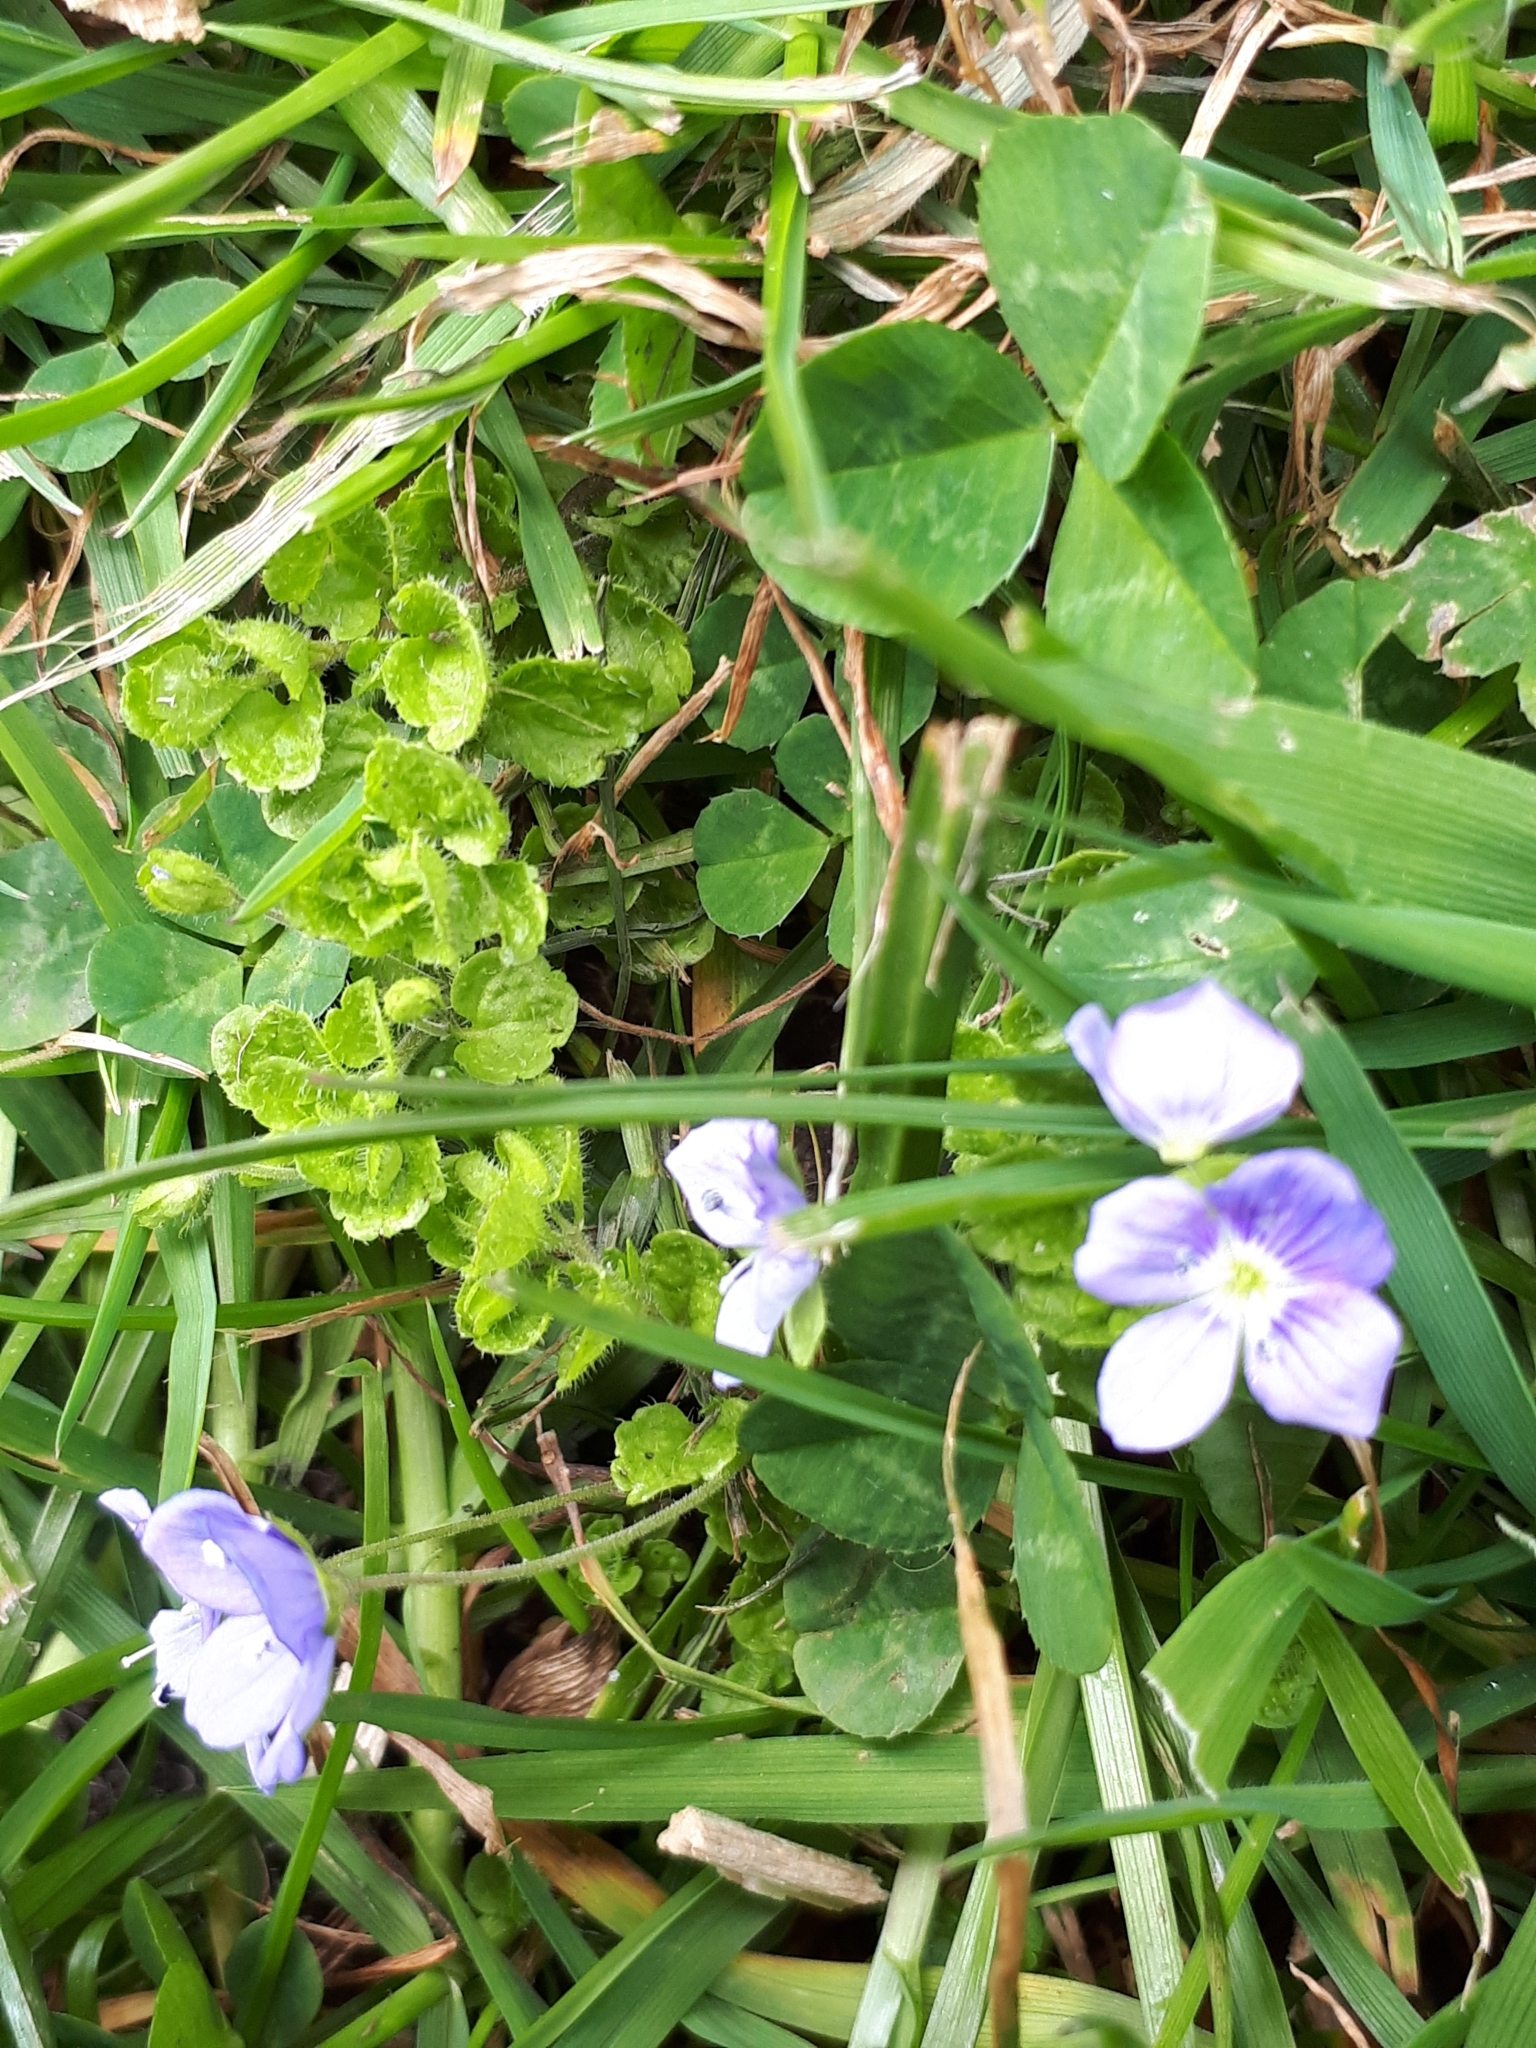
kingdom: Plantae
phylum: Tracheophyta
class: Magnoliopsida
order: Lamiales
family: Plantaginaceae
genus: Veronica
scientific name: Veronica filiformis
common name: Slender speedwell
